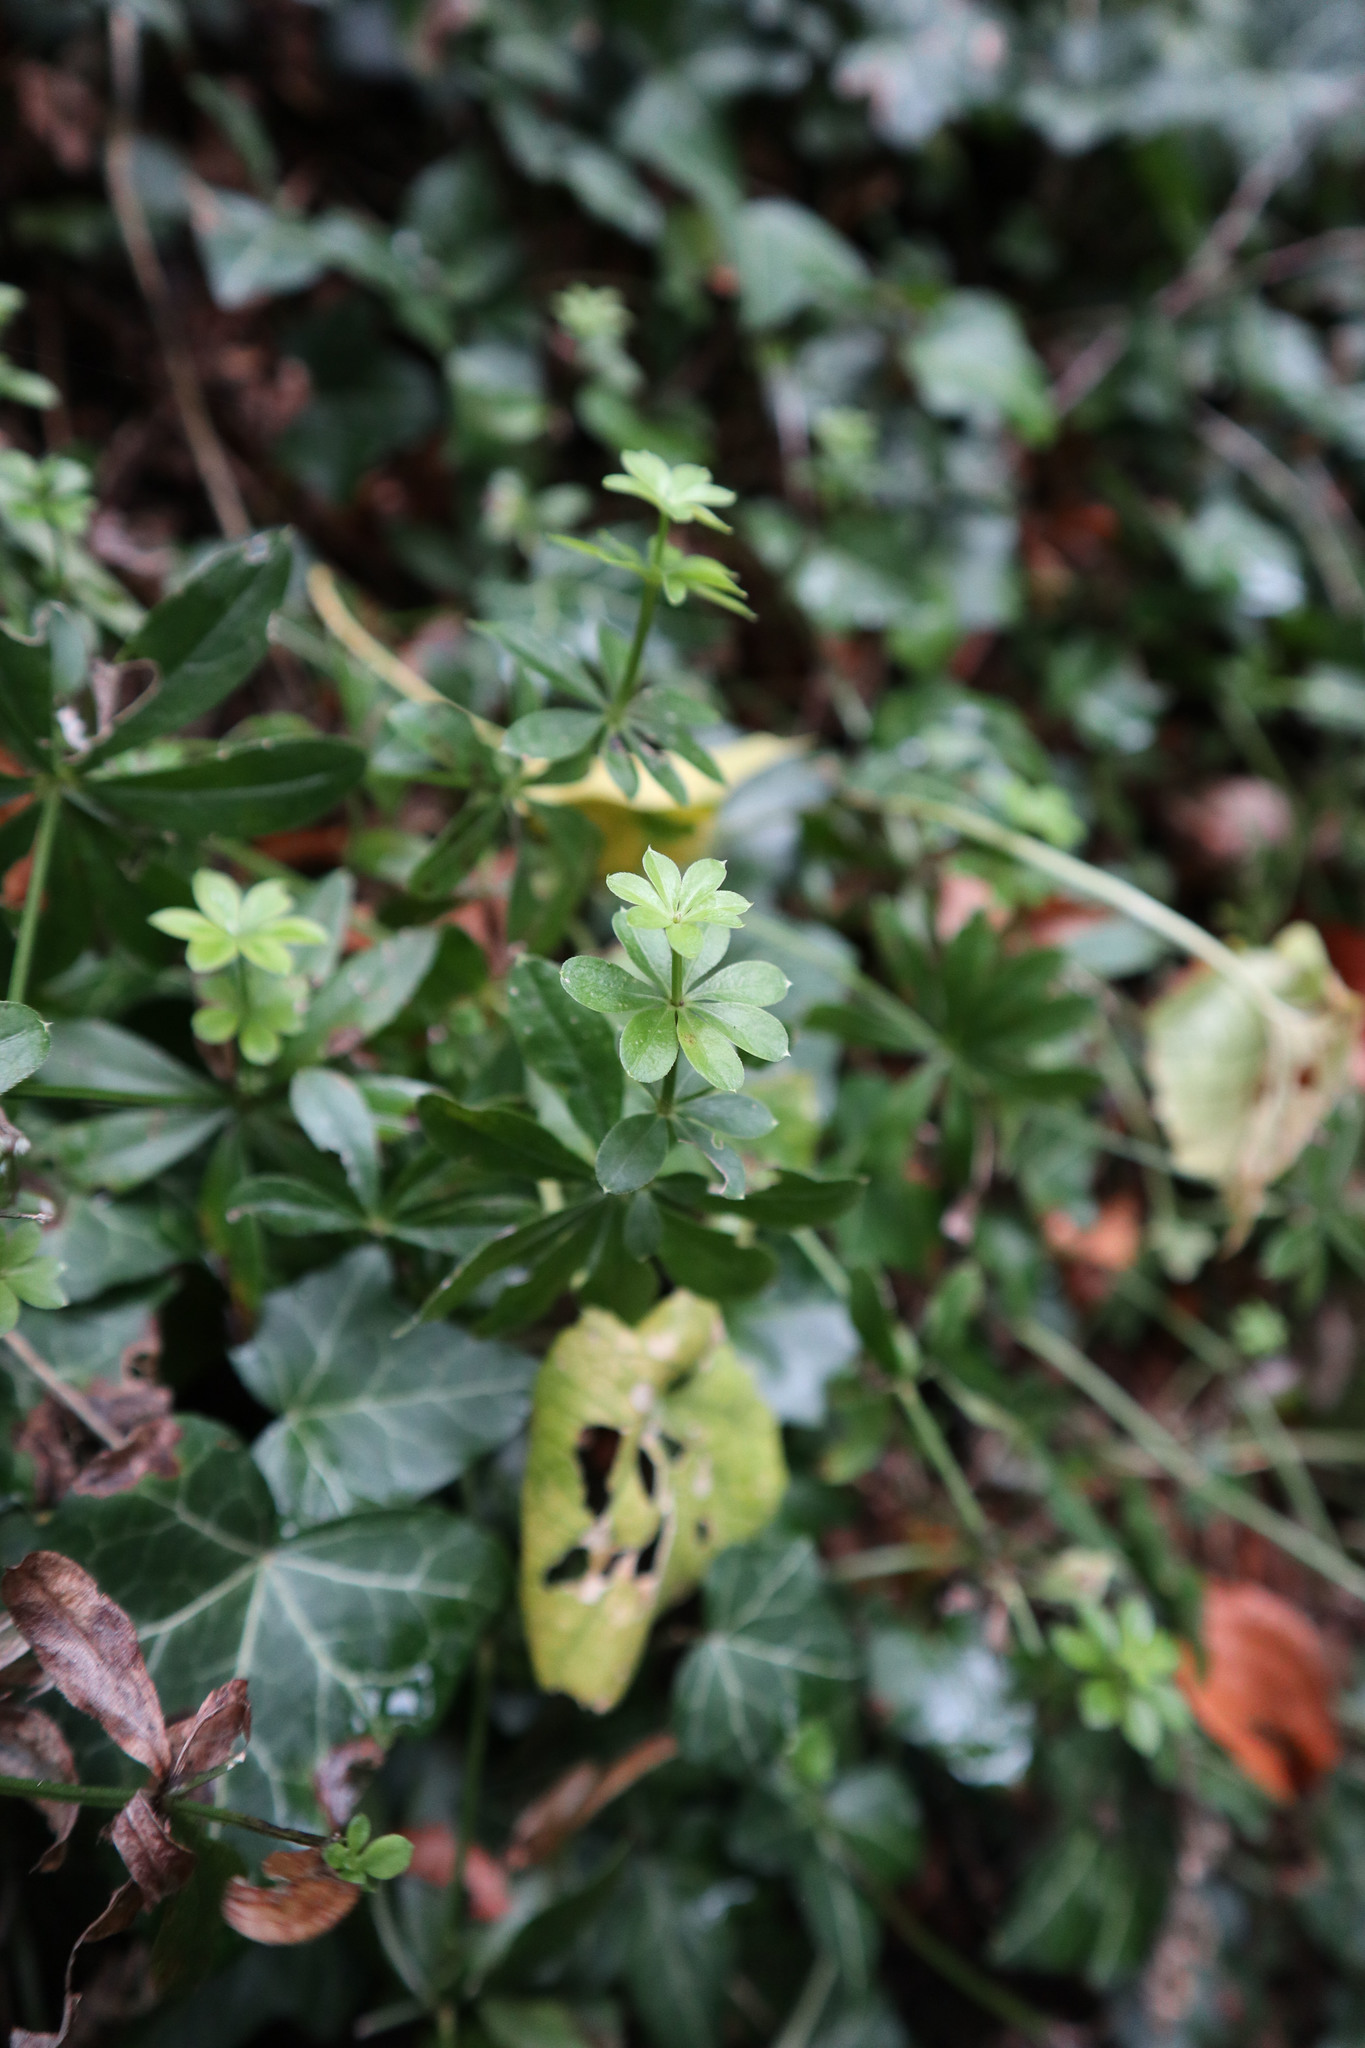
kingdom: Plantae
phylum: Tracheophyta
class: Magnoliopsida
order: Gentianales
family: Rubiaceae
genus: Galium
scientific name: Galium odoratum
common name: Sweet woodruff
